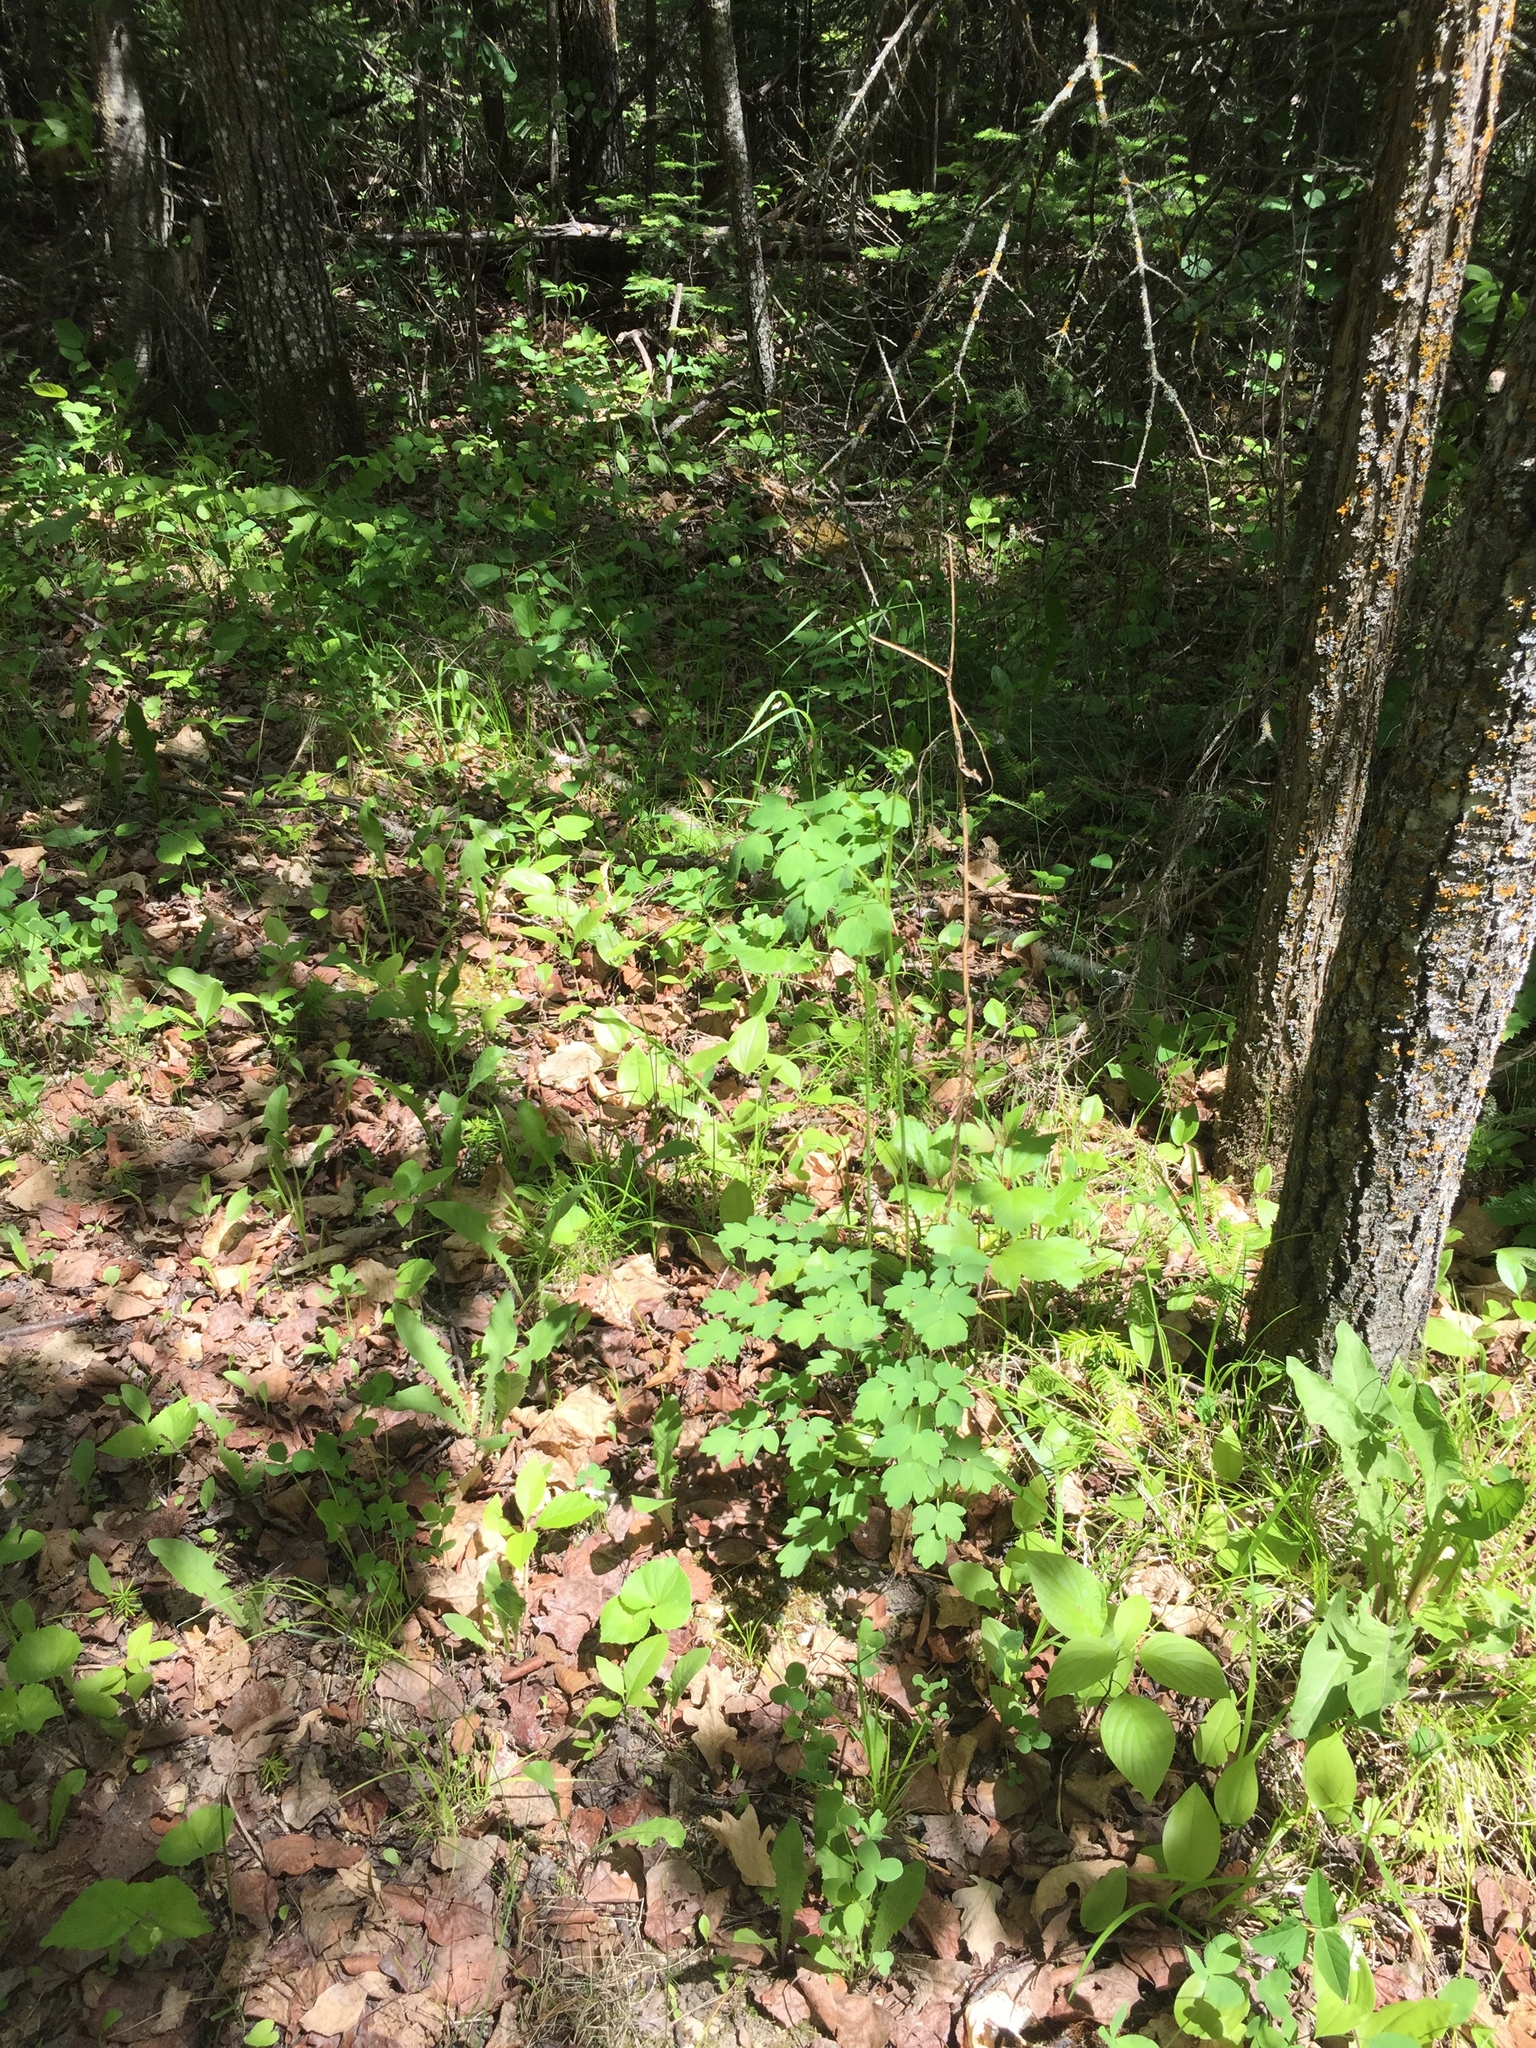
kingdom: Plantae
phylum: Tracheophyta
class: Magnoliopsida
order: Ranunculales
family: Ranunculaceae
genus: Thalictrum
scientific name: Thalictrum dasycarpum
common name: Purple meadow-rue
